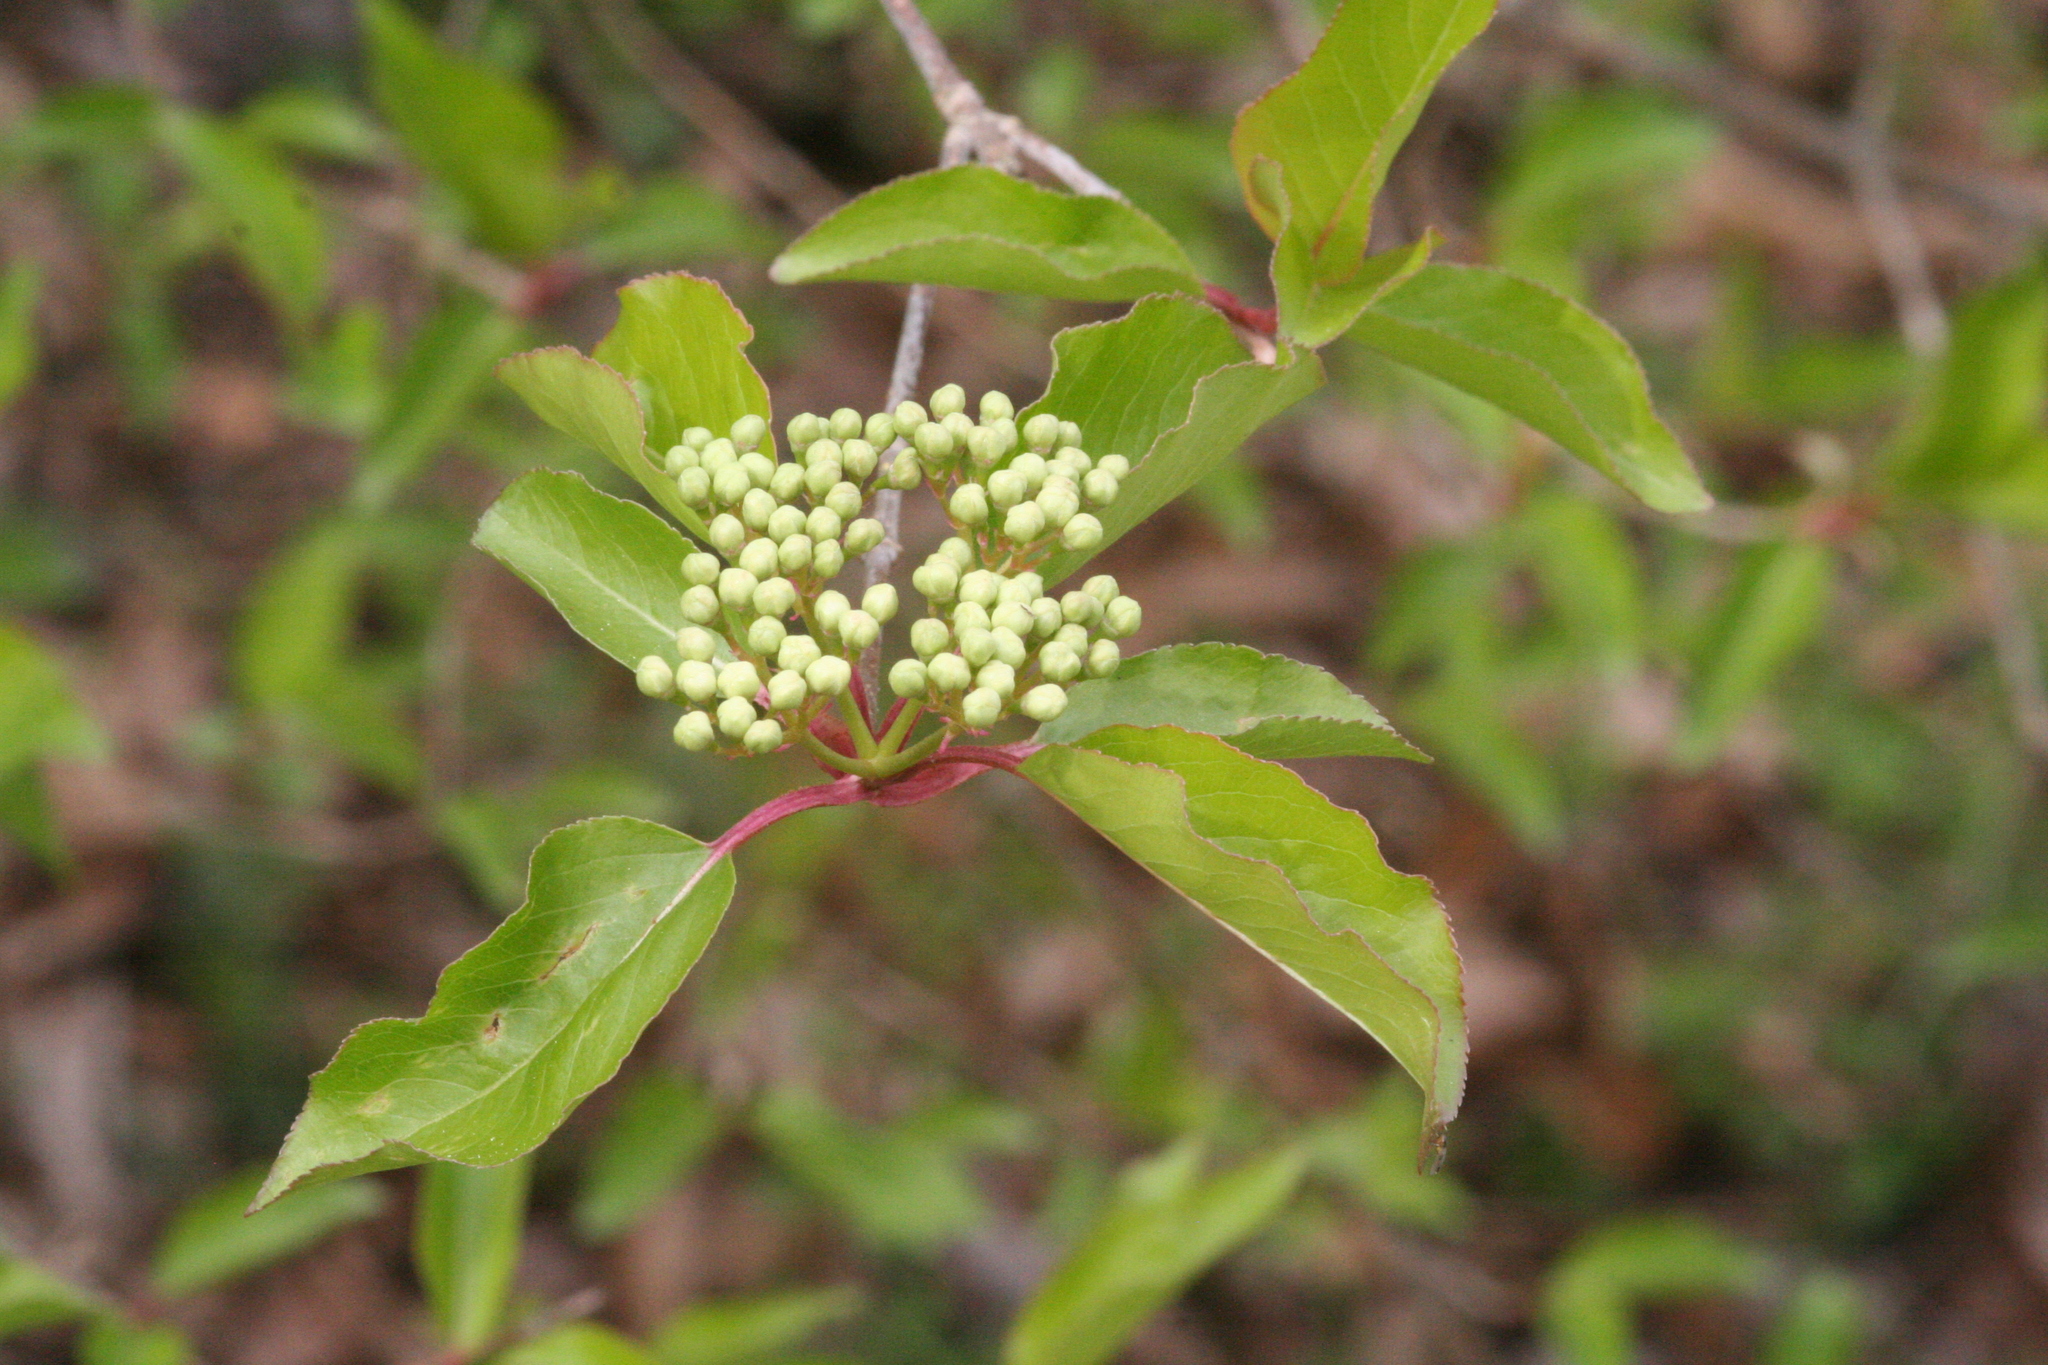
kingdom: Plantae
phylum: Tracheophyta
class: Magnoliopsida
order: Dipsacales
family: Viburnaceae
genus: Viburnum
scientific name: Viburnum prunifolium
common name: Black haw
